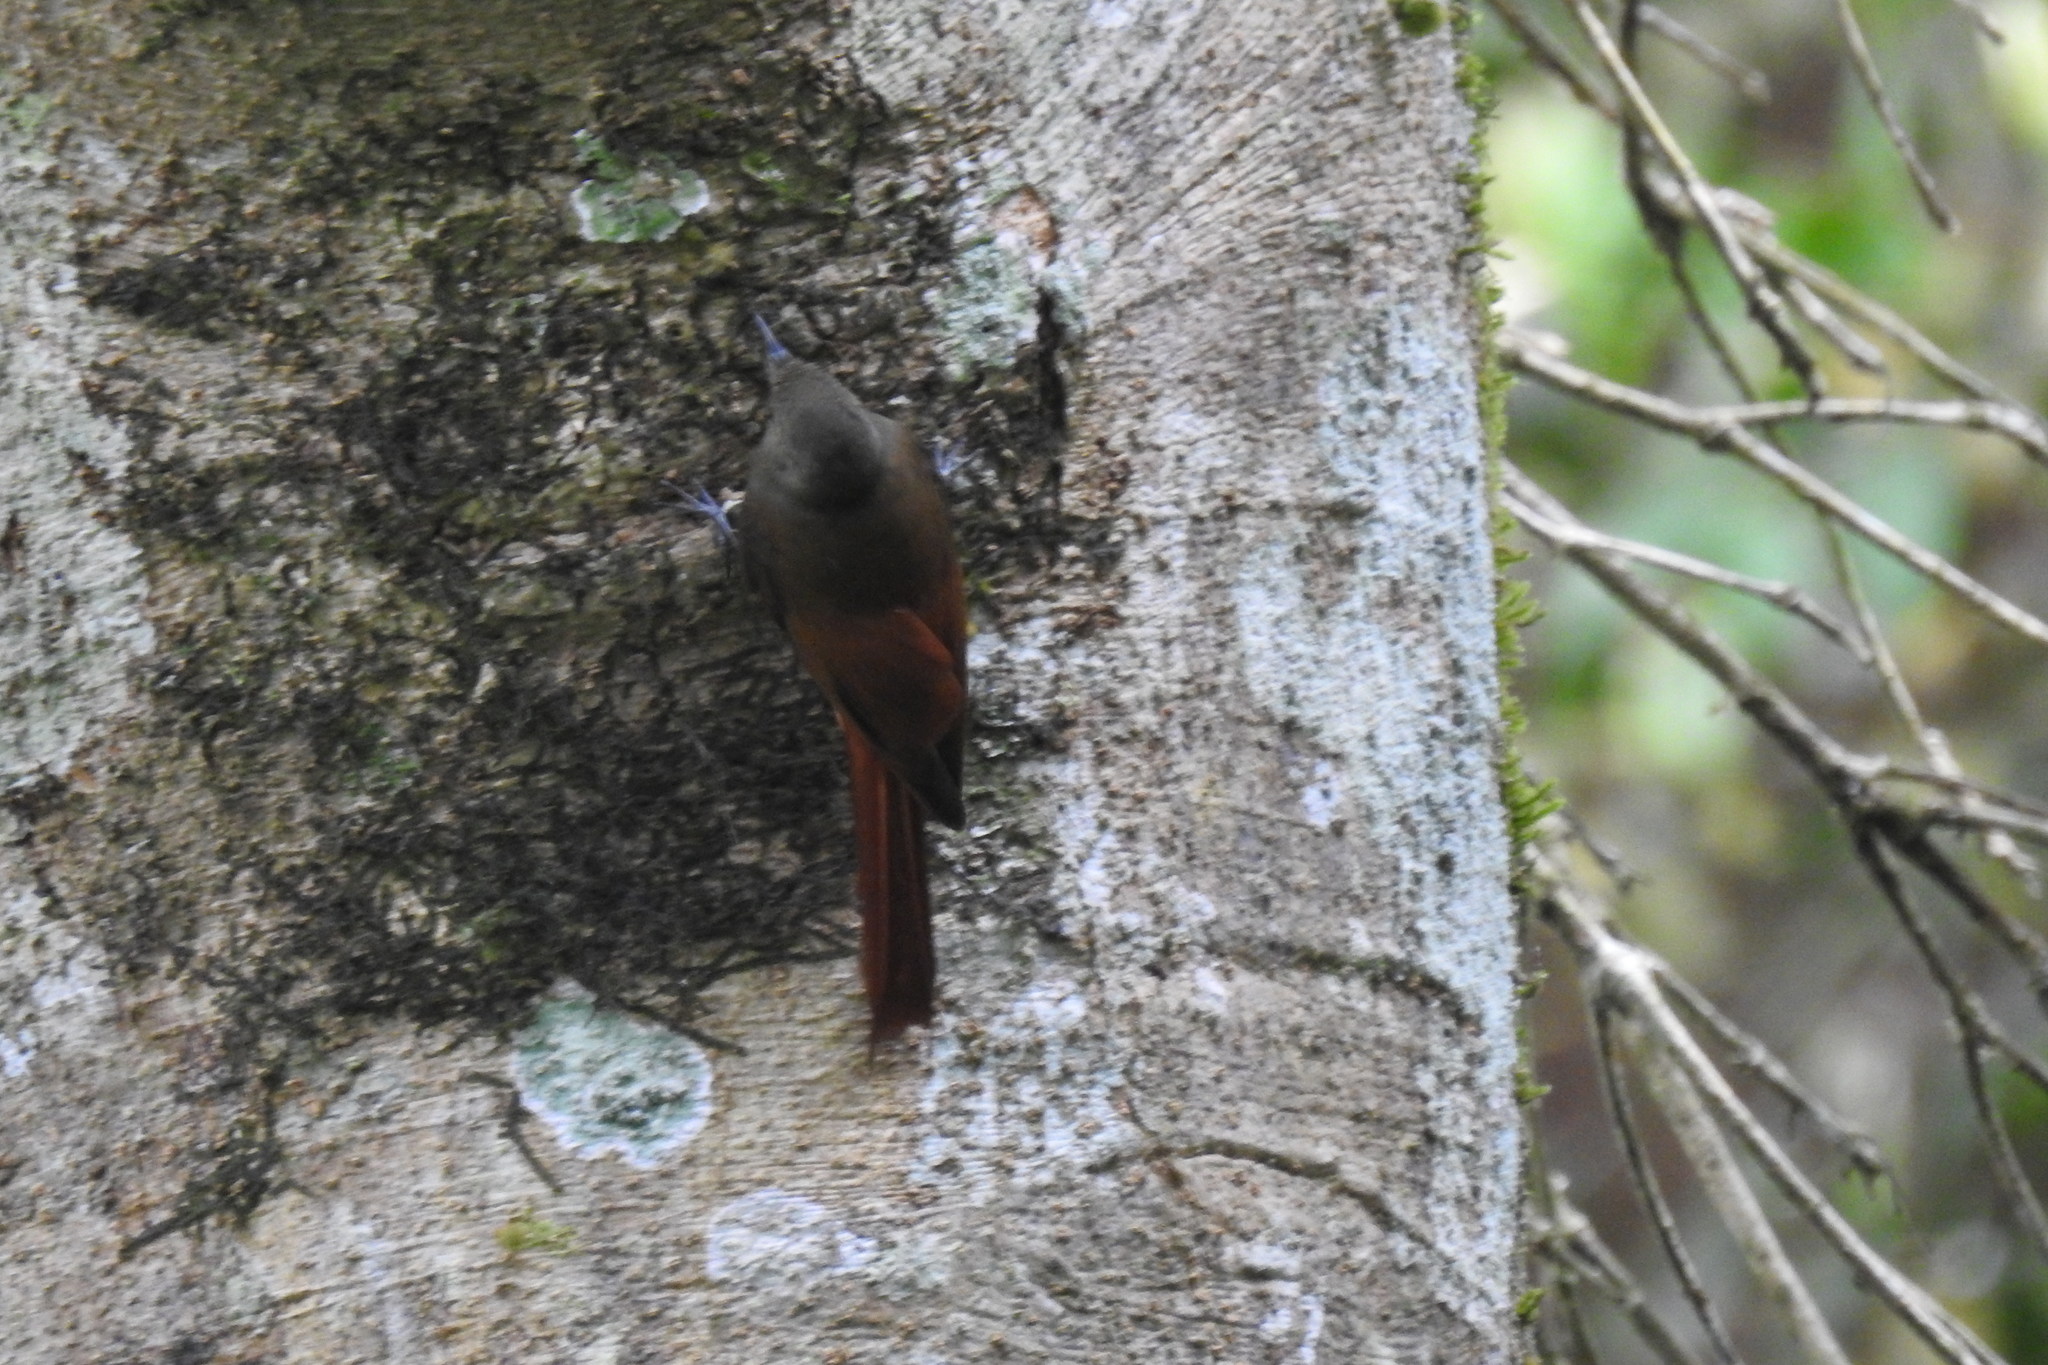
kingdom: Animalia
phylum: Chordata
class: Aves
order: Passeriformes
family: Furnariidae
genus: Sittasomus
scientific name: Sittasomus griseicapillus
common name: Olivaceous woodcreeper
